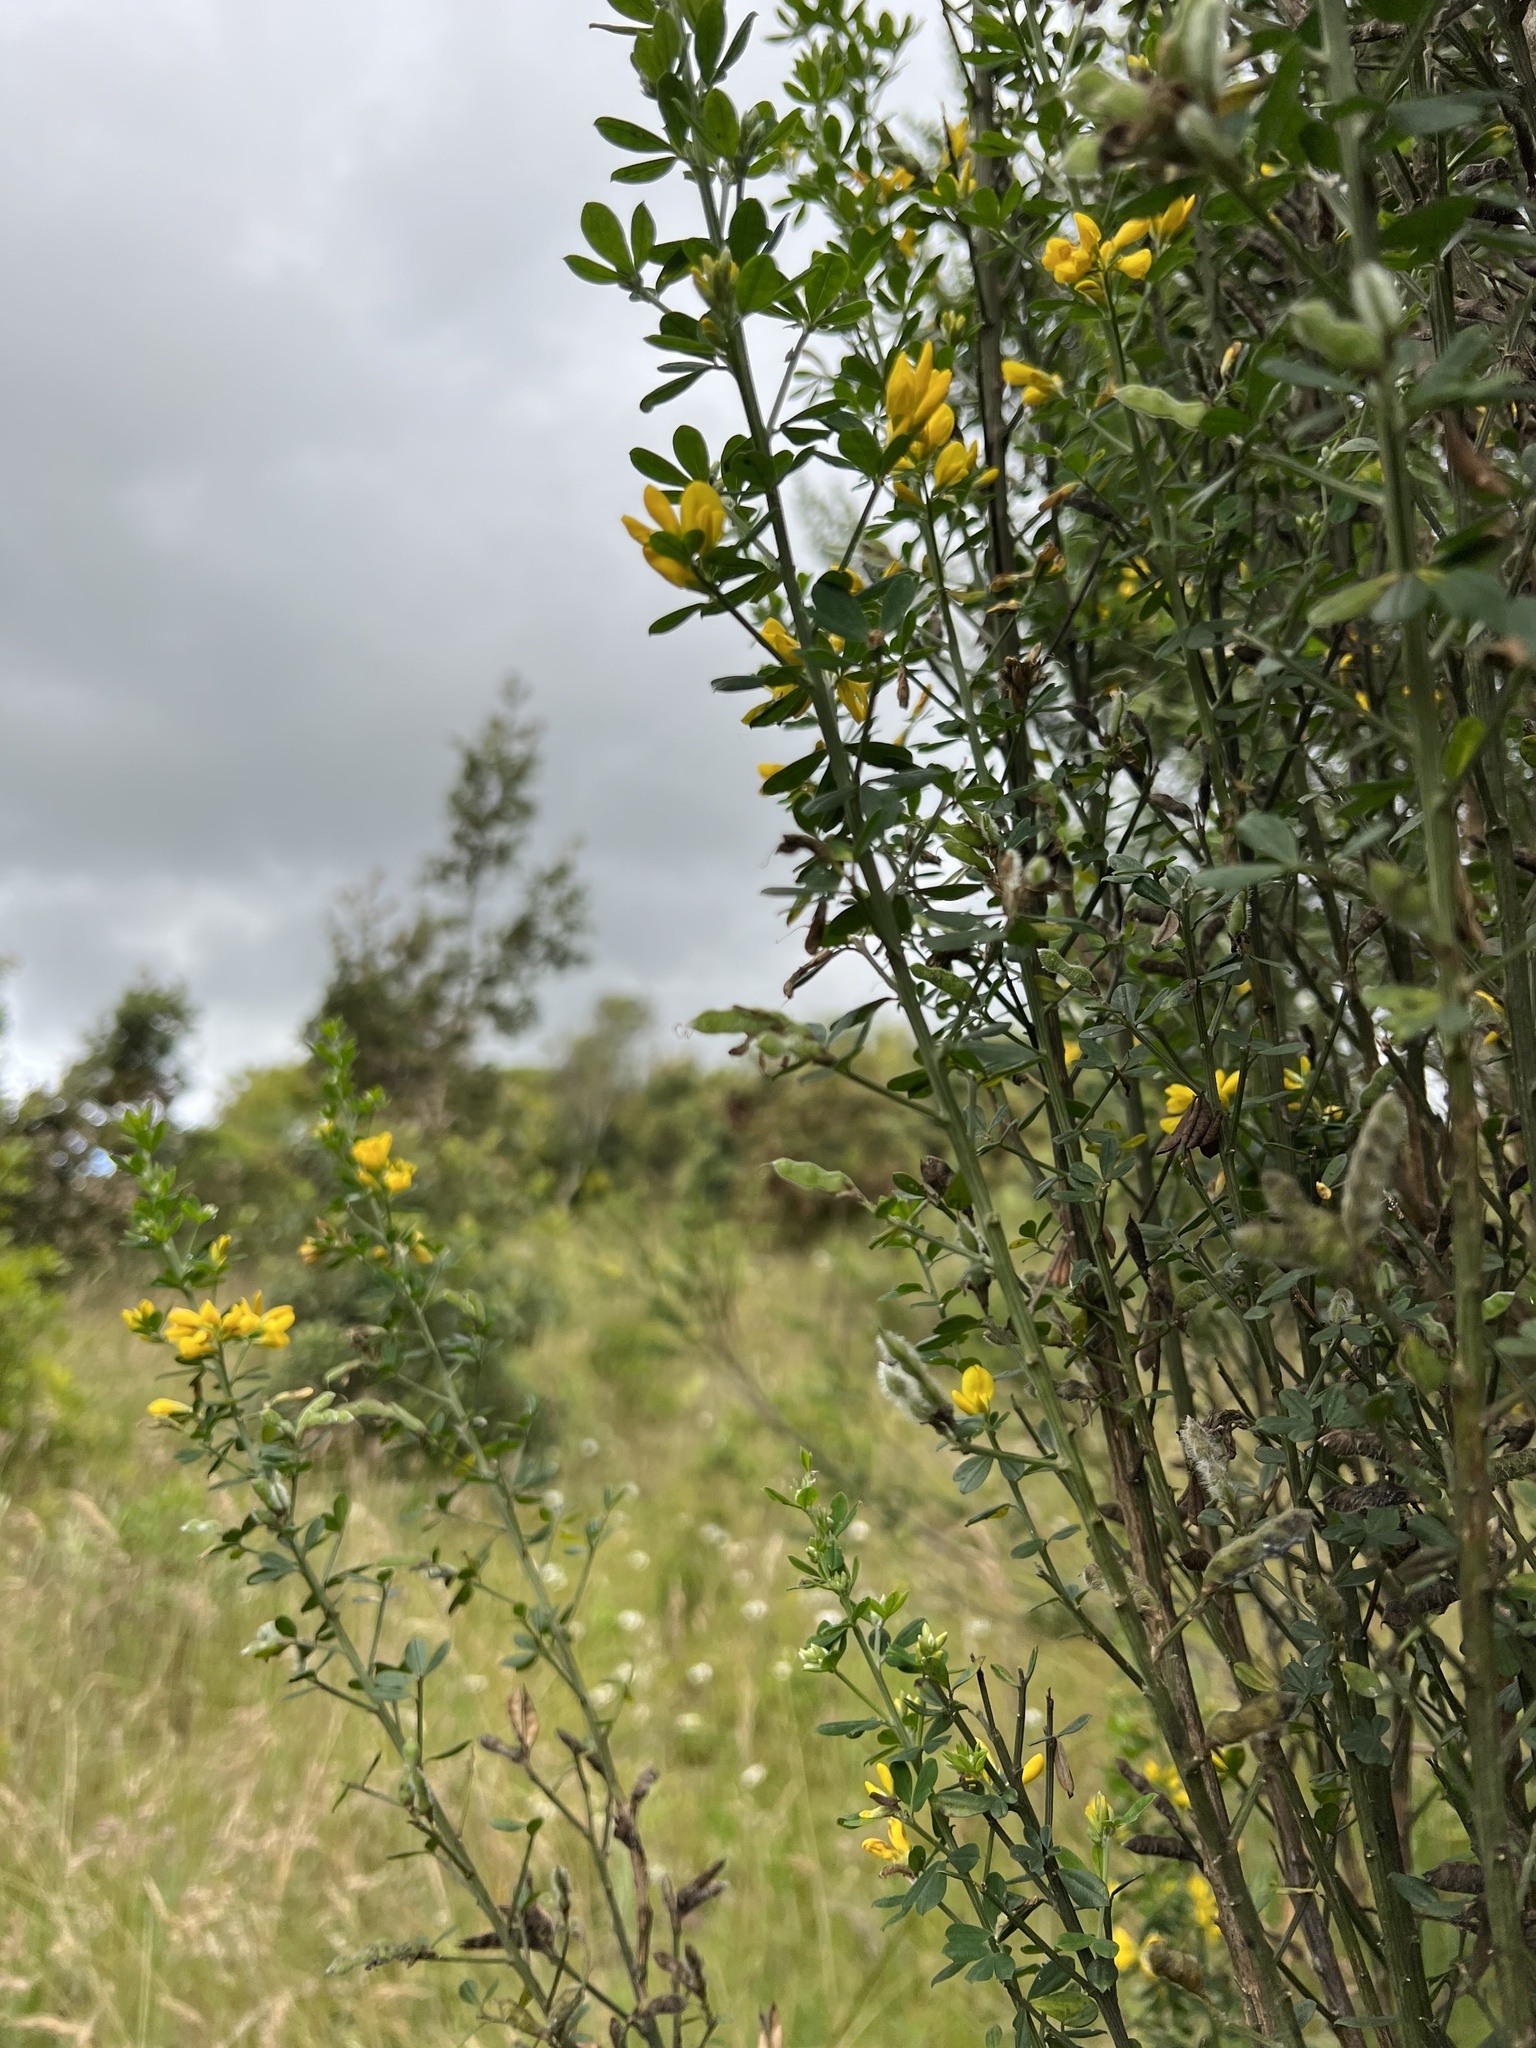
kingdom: Plantae
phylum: Tracheophyta
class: Magnoliopsida
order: Fabales
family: Fabaceae
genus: Genista
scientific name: Genista monspessulana
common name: Montpellier broom
